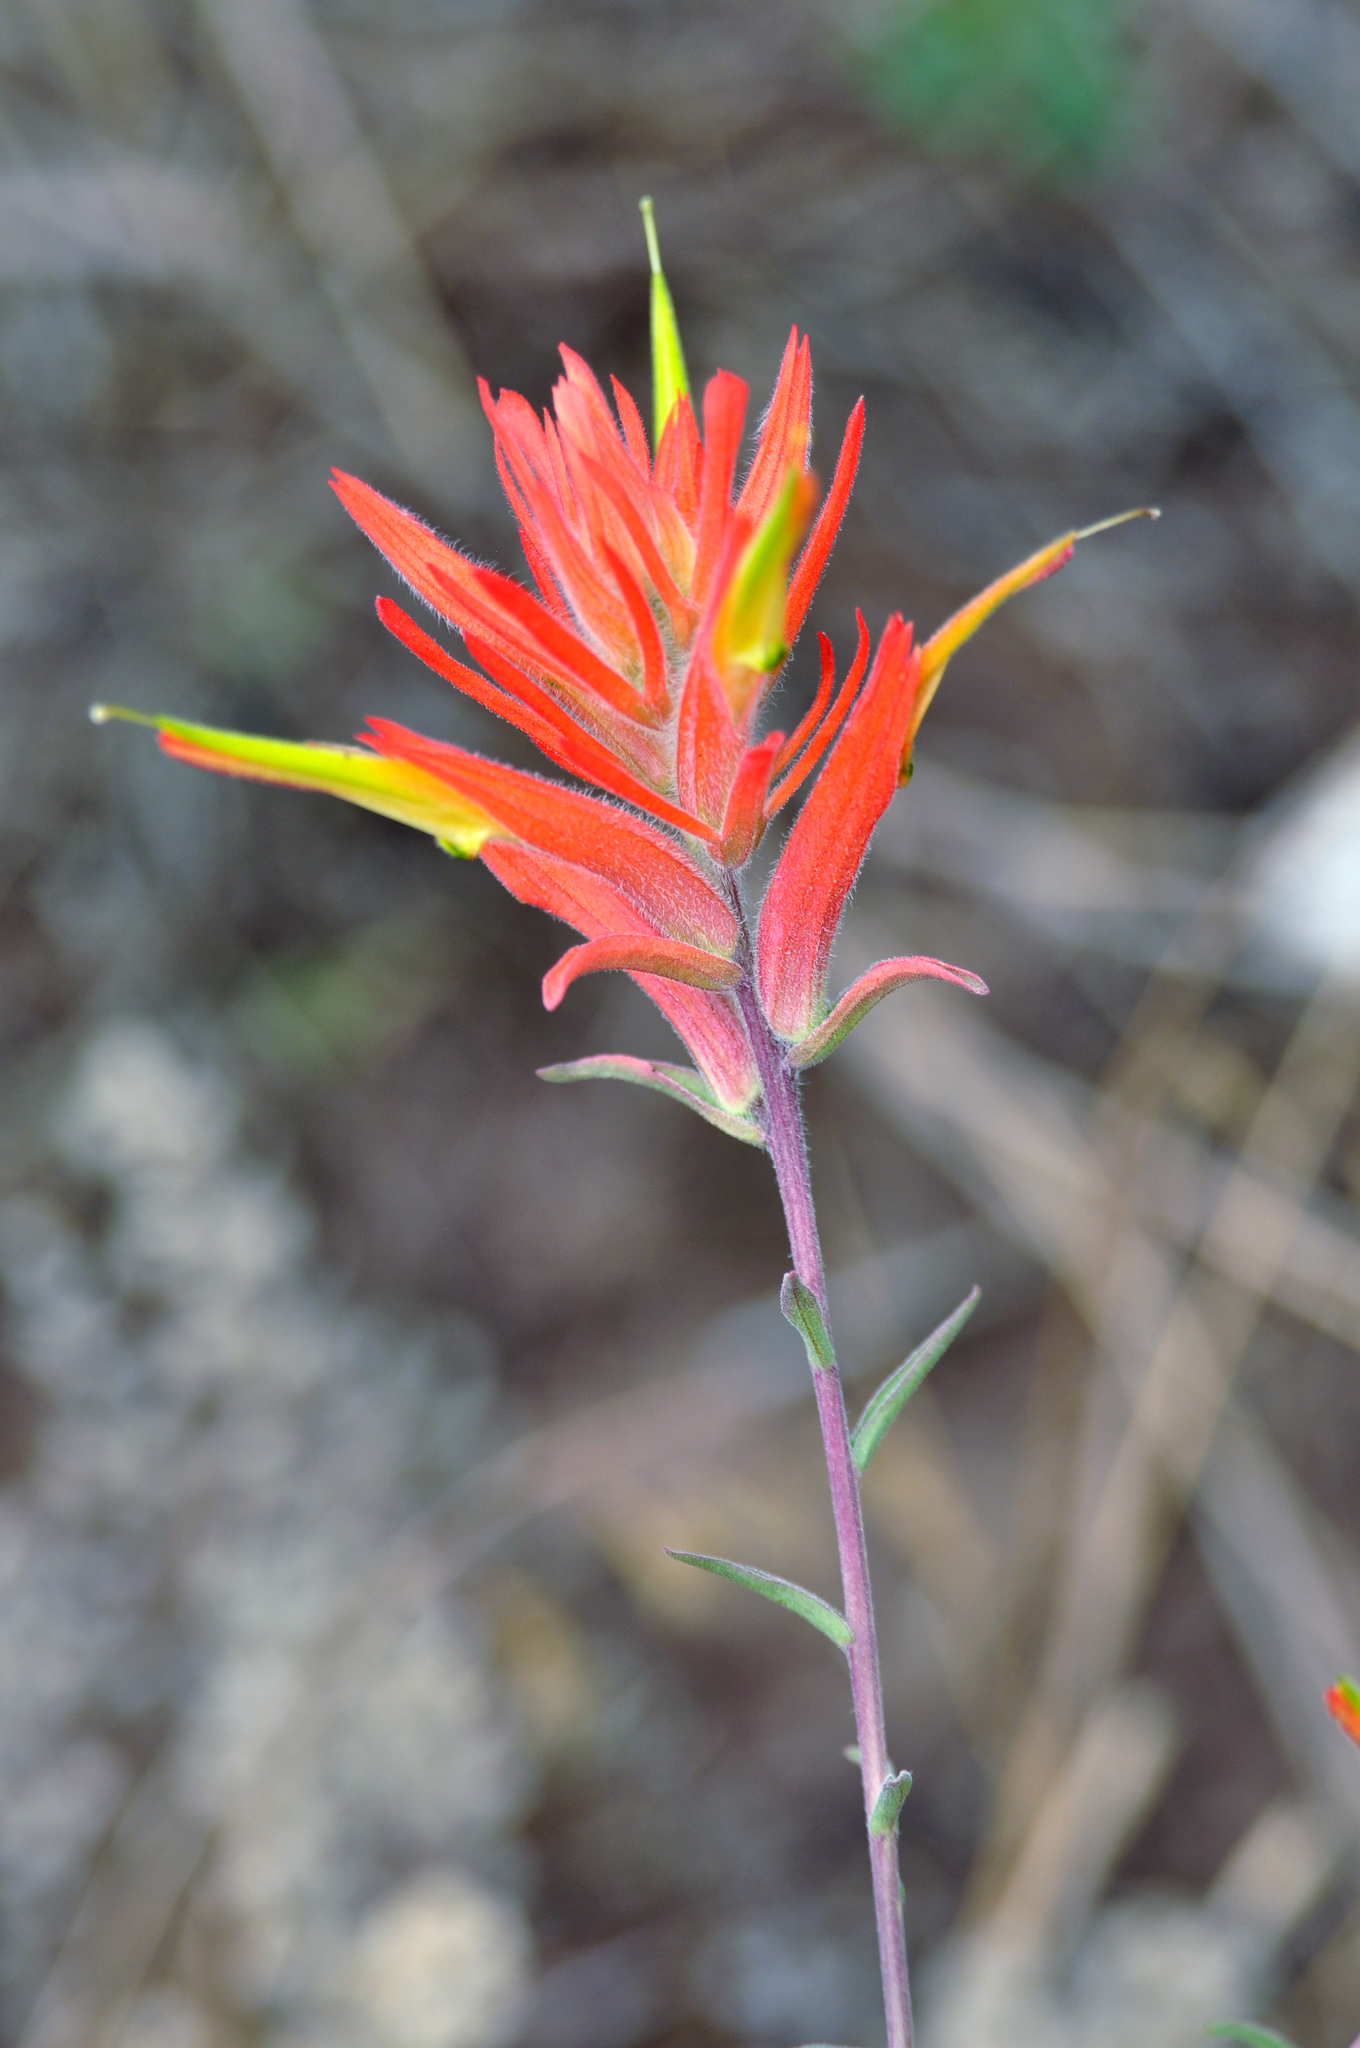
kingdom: Plantae
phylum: Tracheophyta
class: Magnoliopsida
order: Lamiales
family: Orobanchaceae
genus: Castilleja
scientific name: Castilleja linariifolia
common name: Wyoming paintbrush
